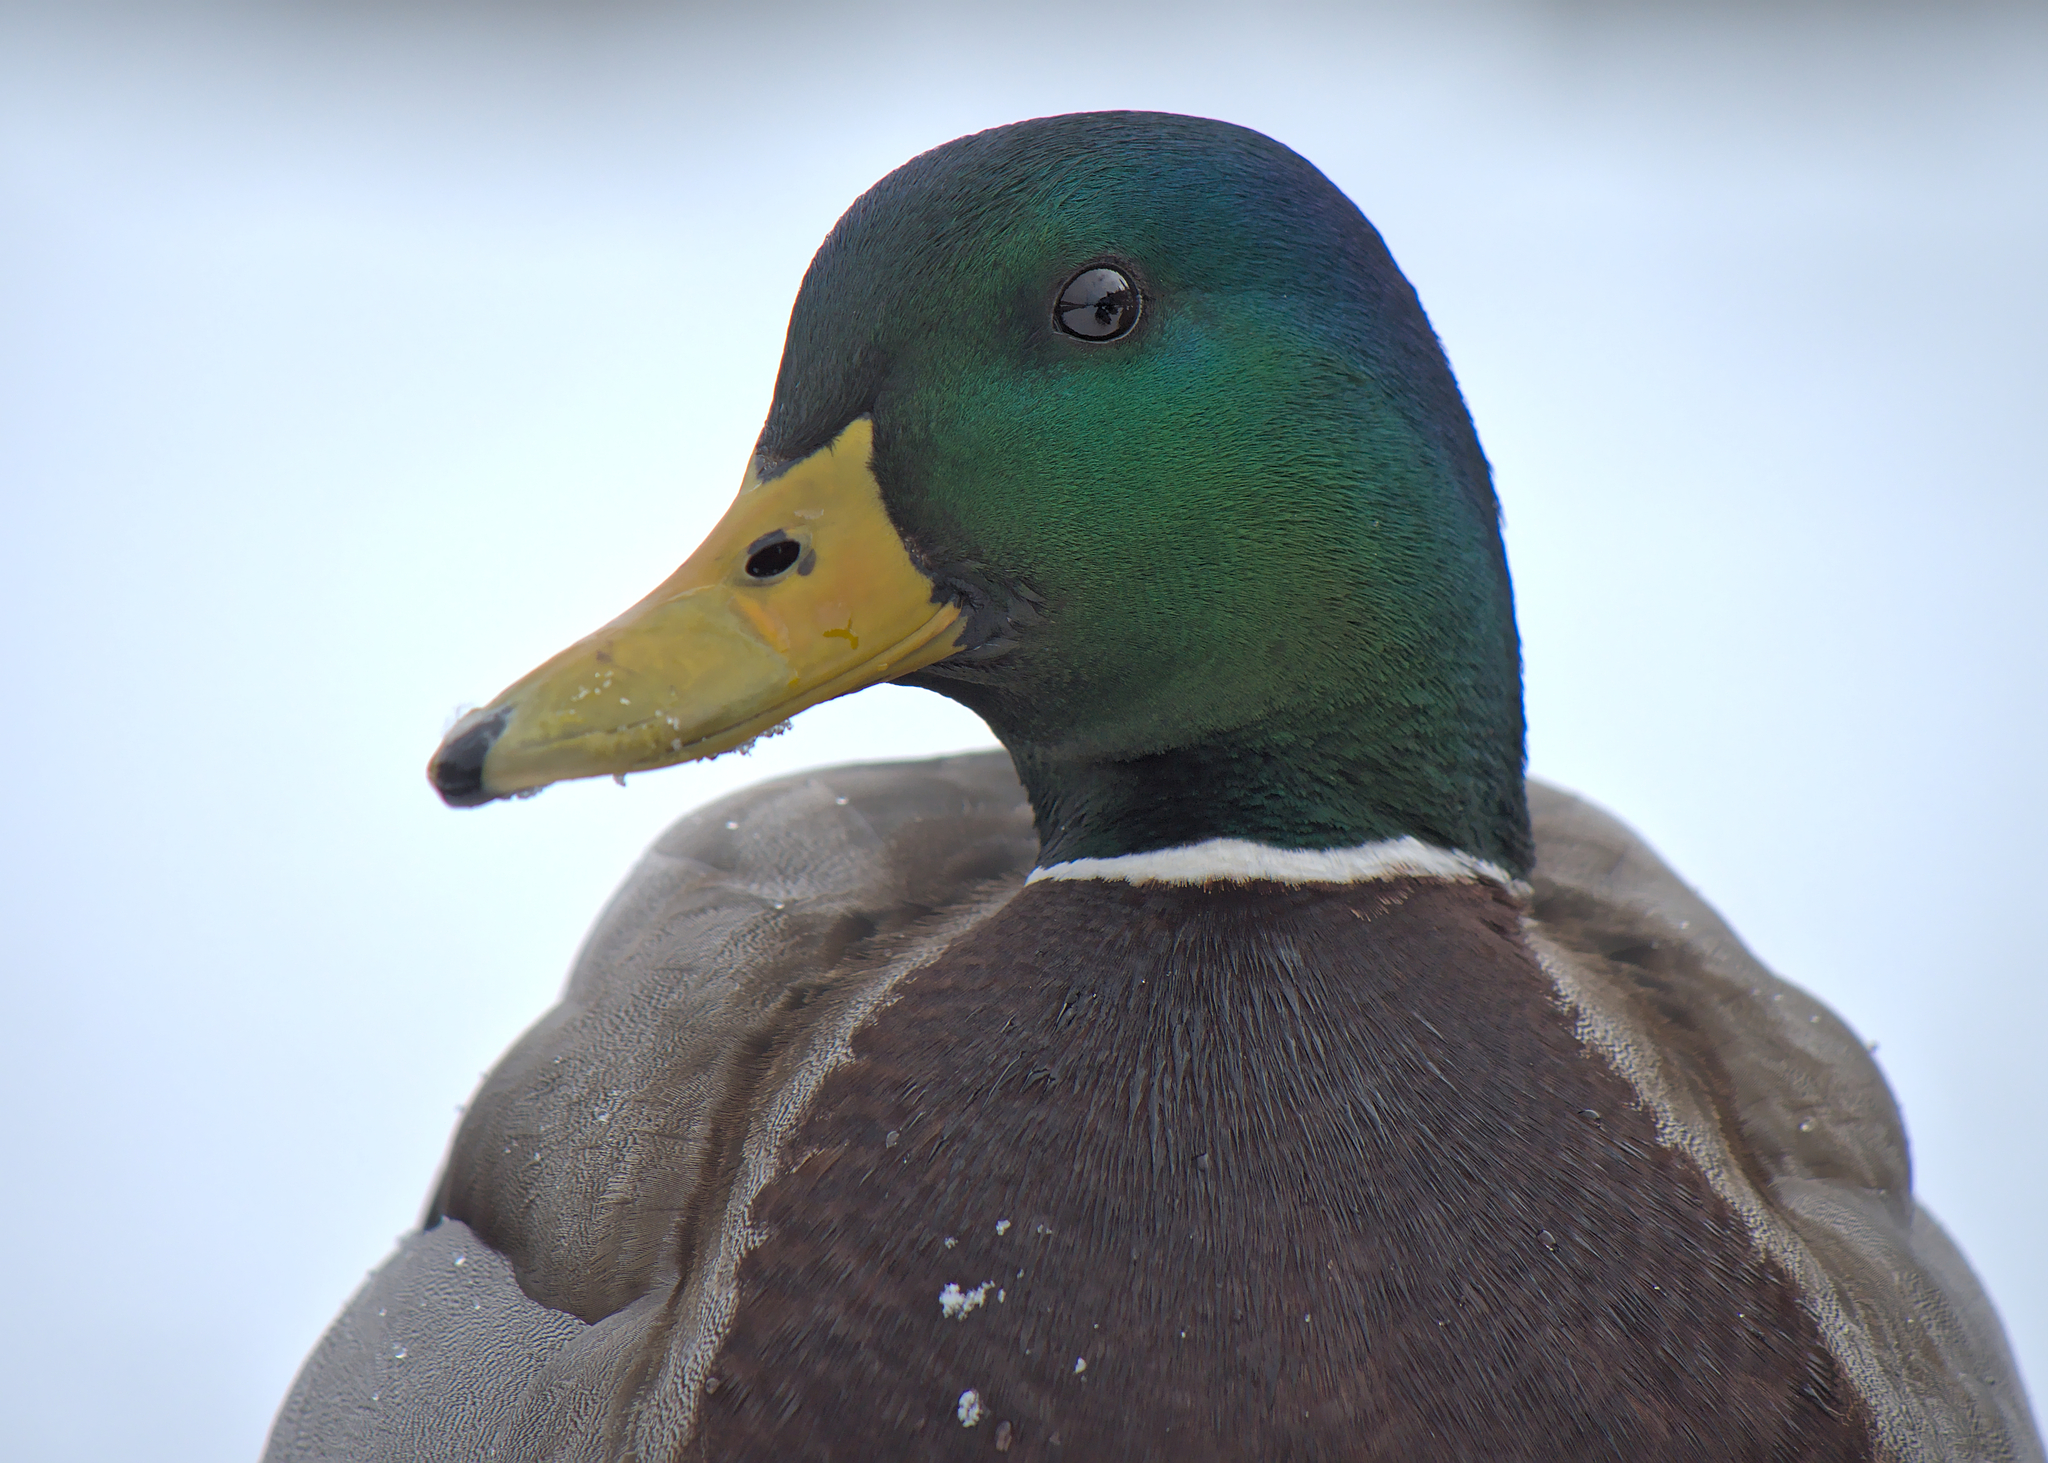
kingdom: Animalia
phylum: Chordata
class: Aves
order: Anseriformes
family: Anatidae
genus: Anas
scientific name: Anas platyrhynchos
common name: Mallard
